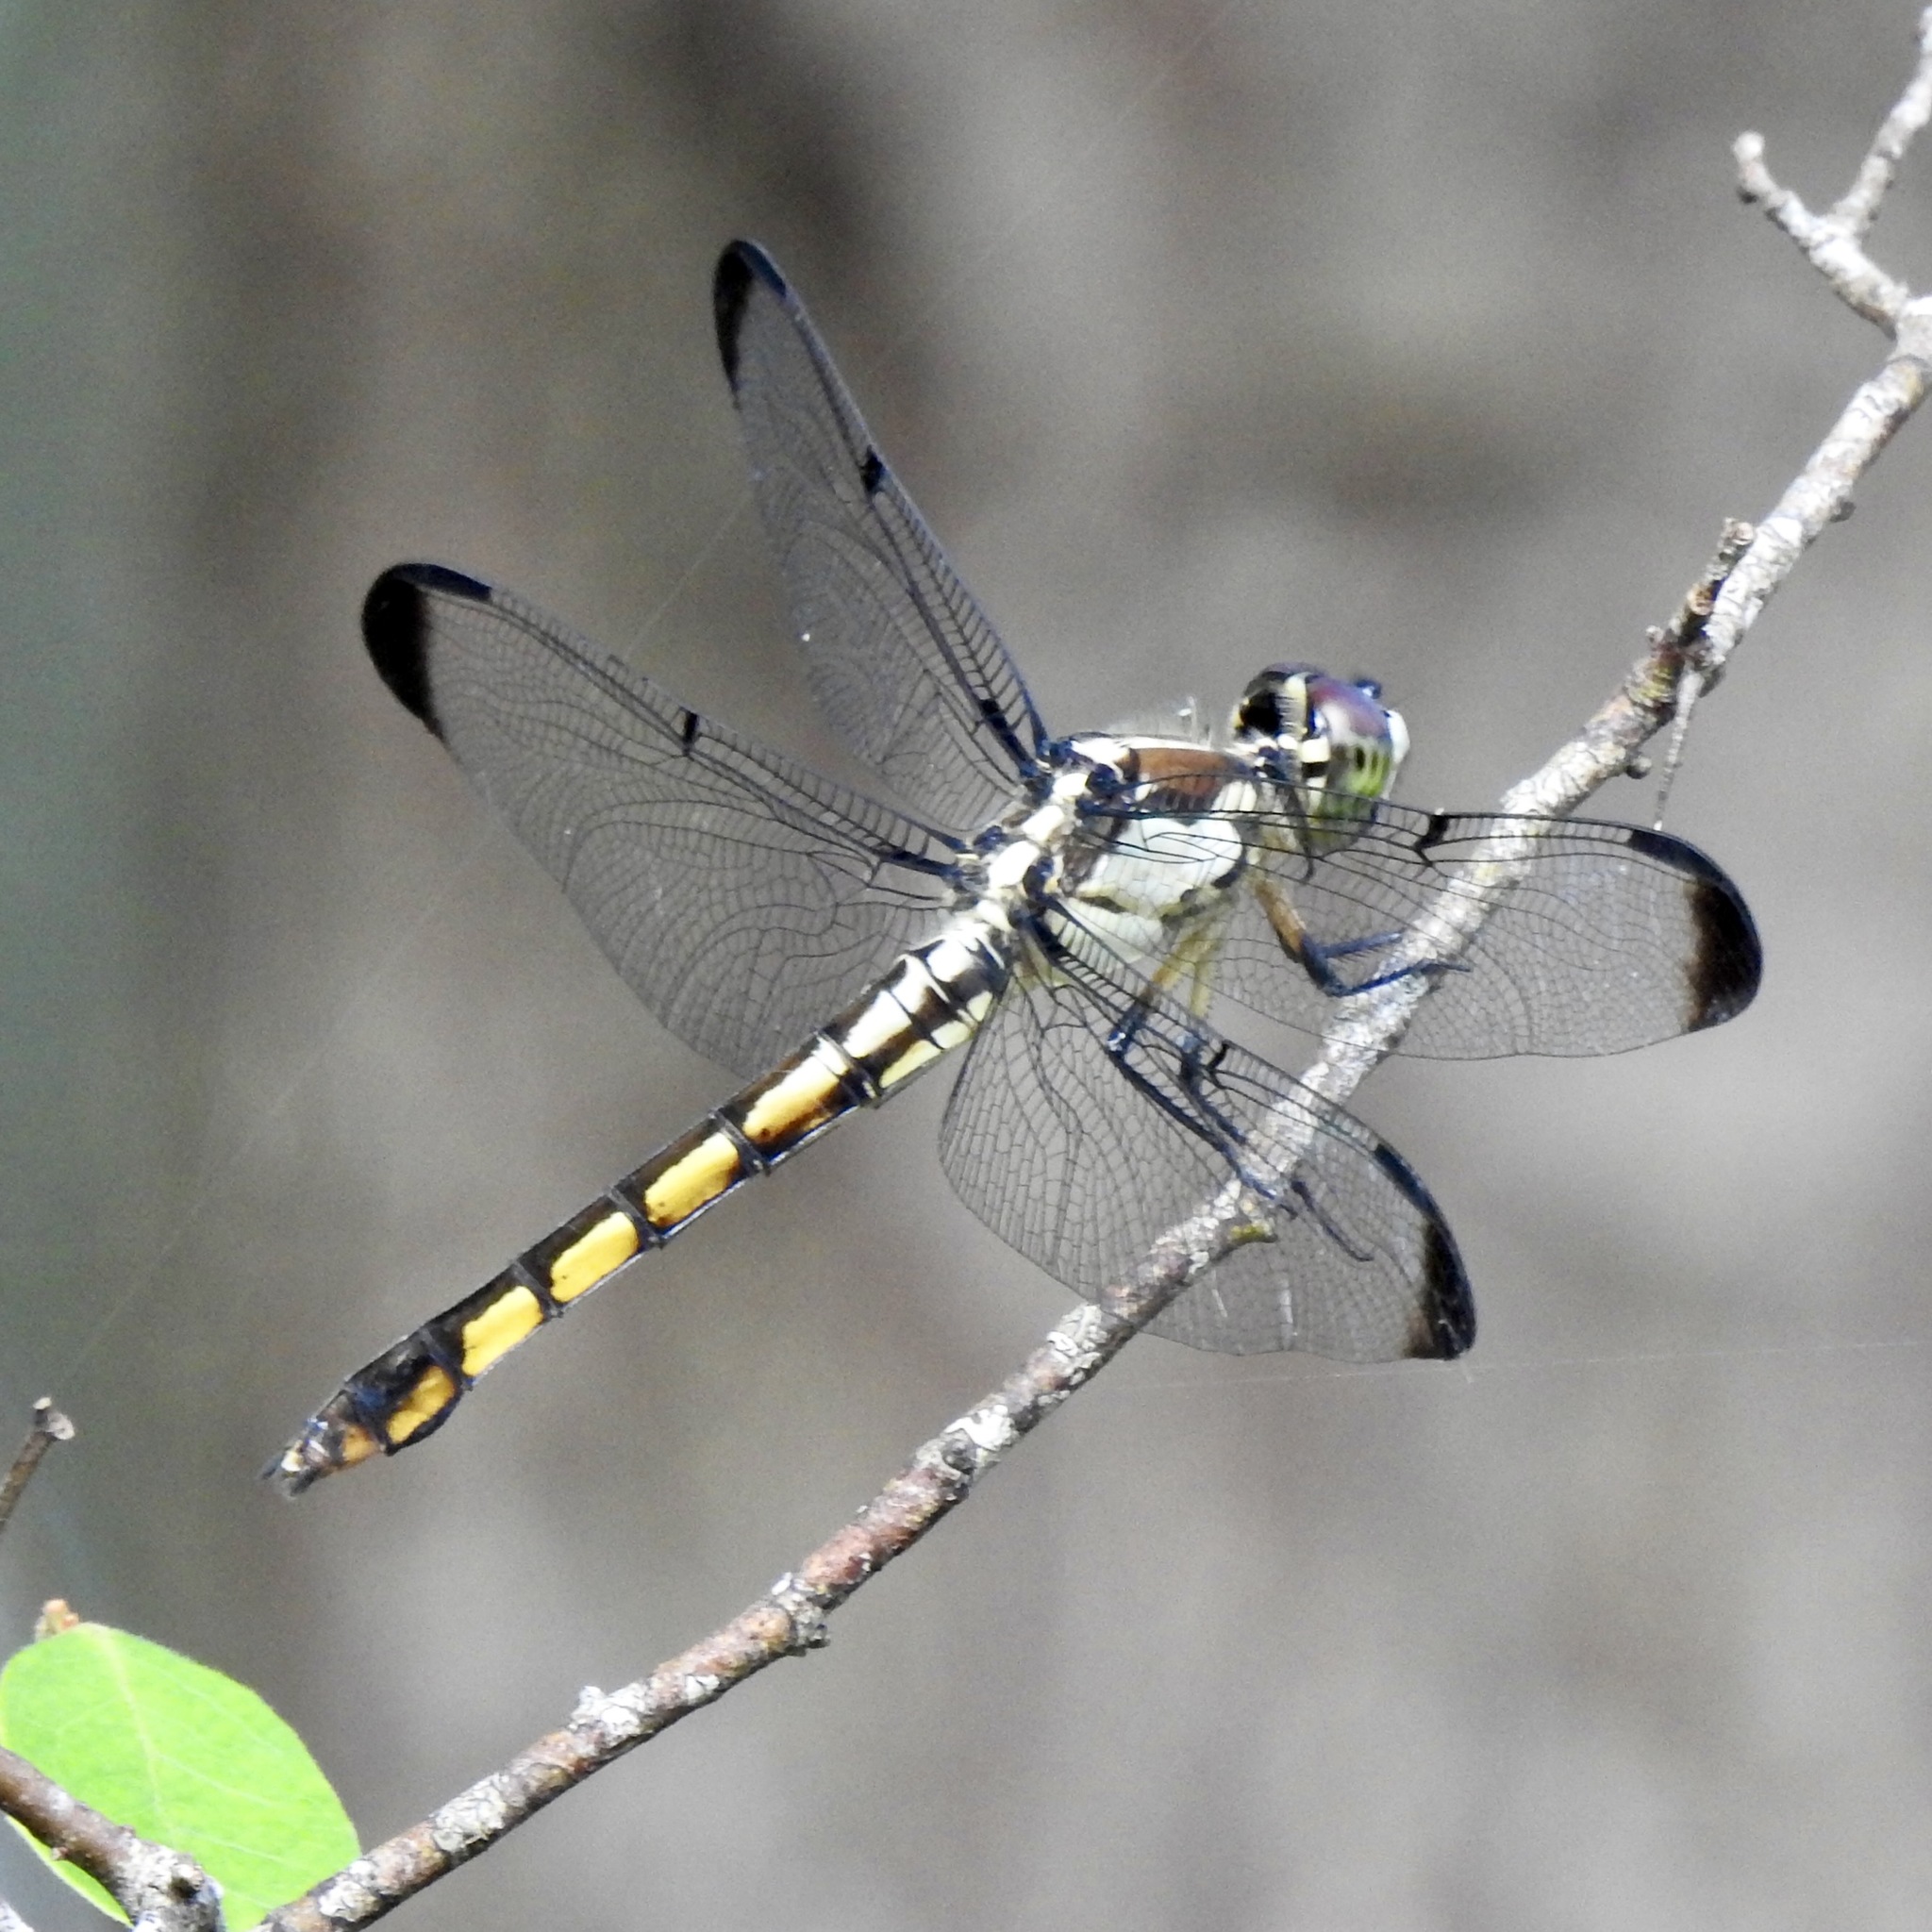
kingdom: Animalia
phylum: Arthropoda
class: Insecta
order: Odonata
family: Libellulidae
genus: Libellula
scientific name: Libellula vibrans
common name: Great blue skimmer
